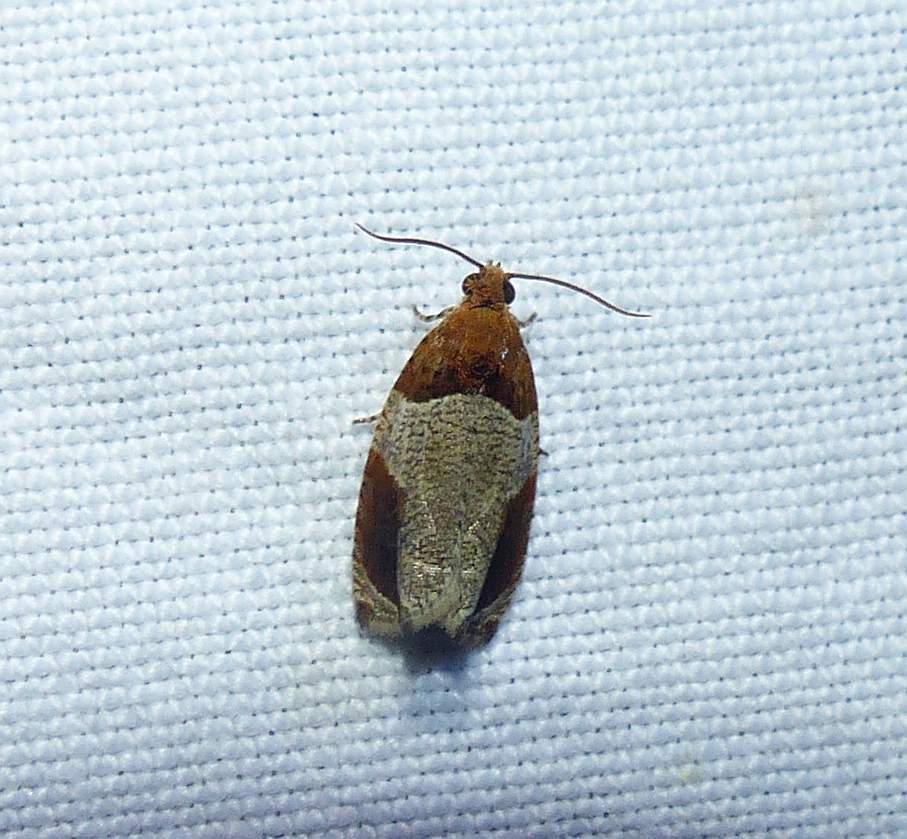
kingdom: Animalia
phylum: Arthropoda
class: Insecta
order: Lepidoptera
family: Tortricidae
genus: Olethreutes
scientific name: Olethreutes ferriferana
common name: Hydrangea leaftier moth
